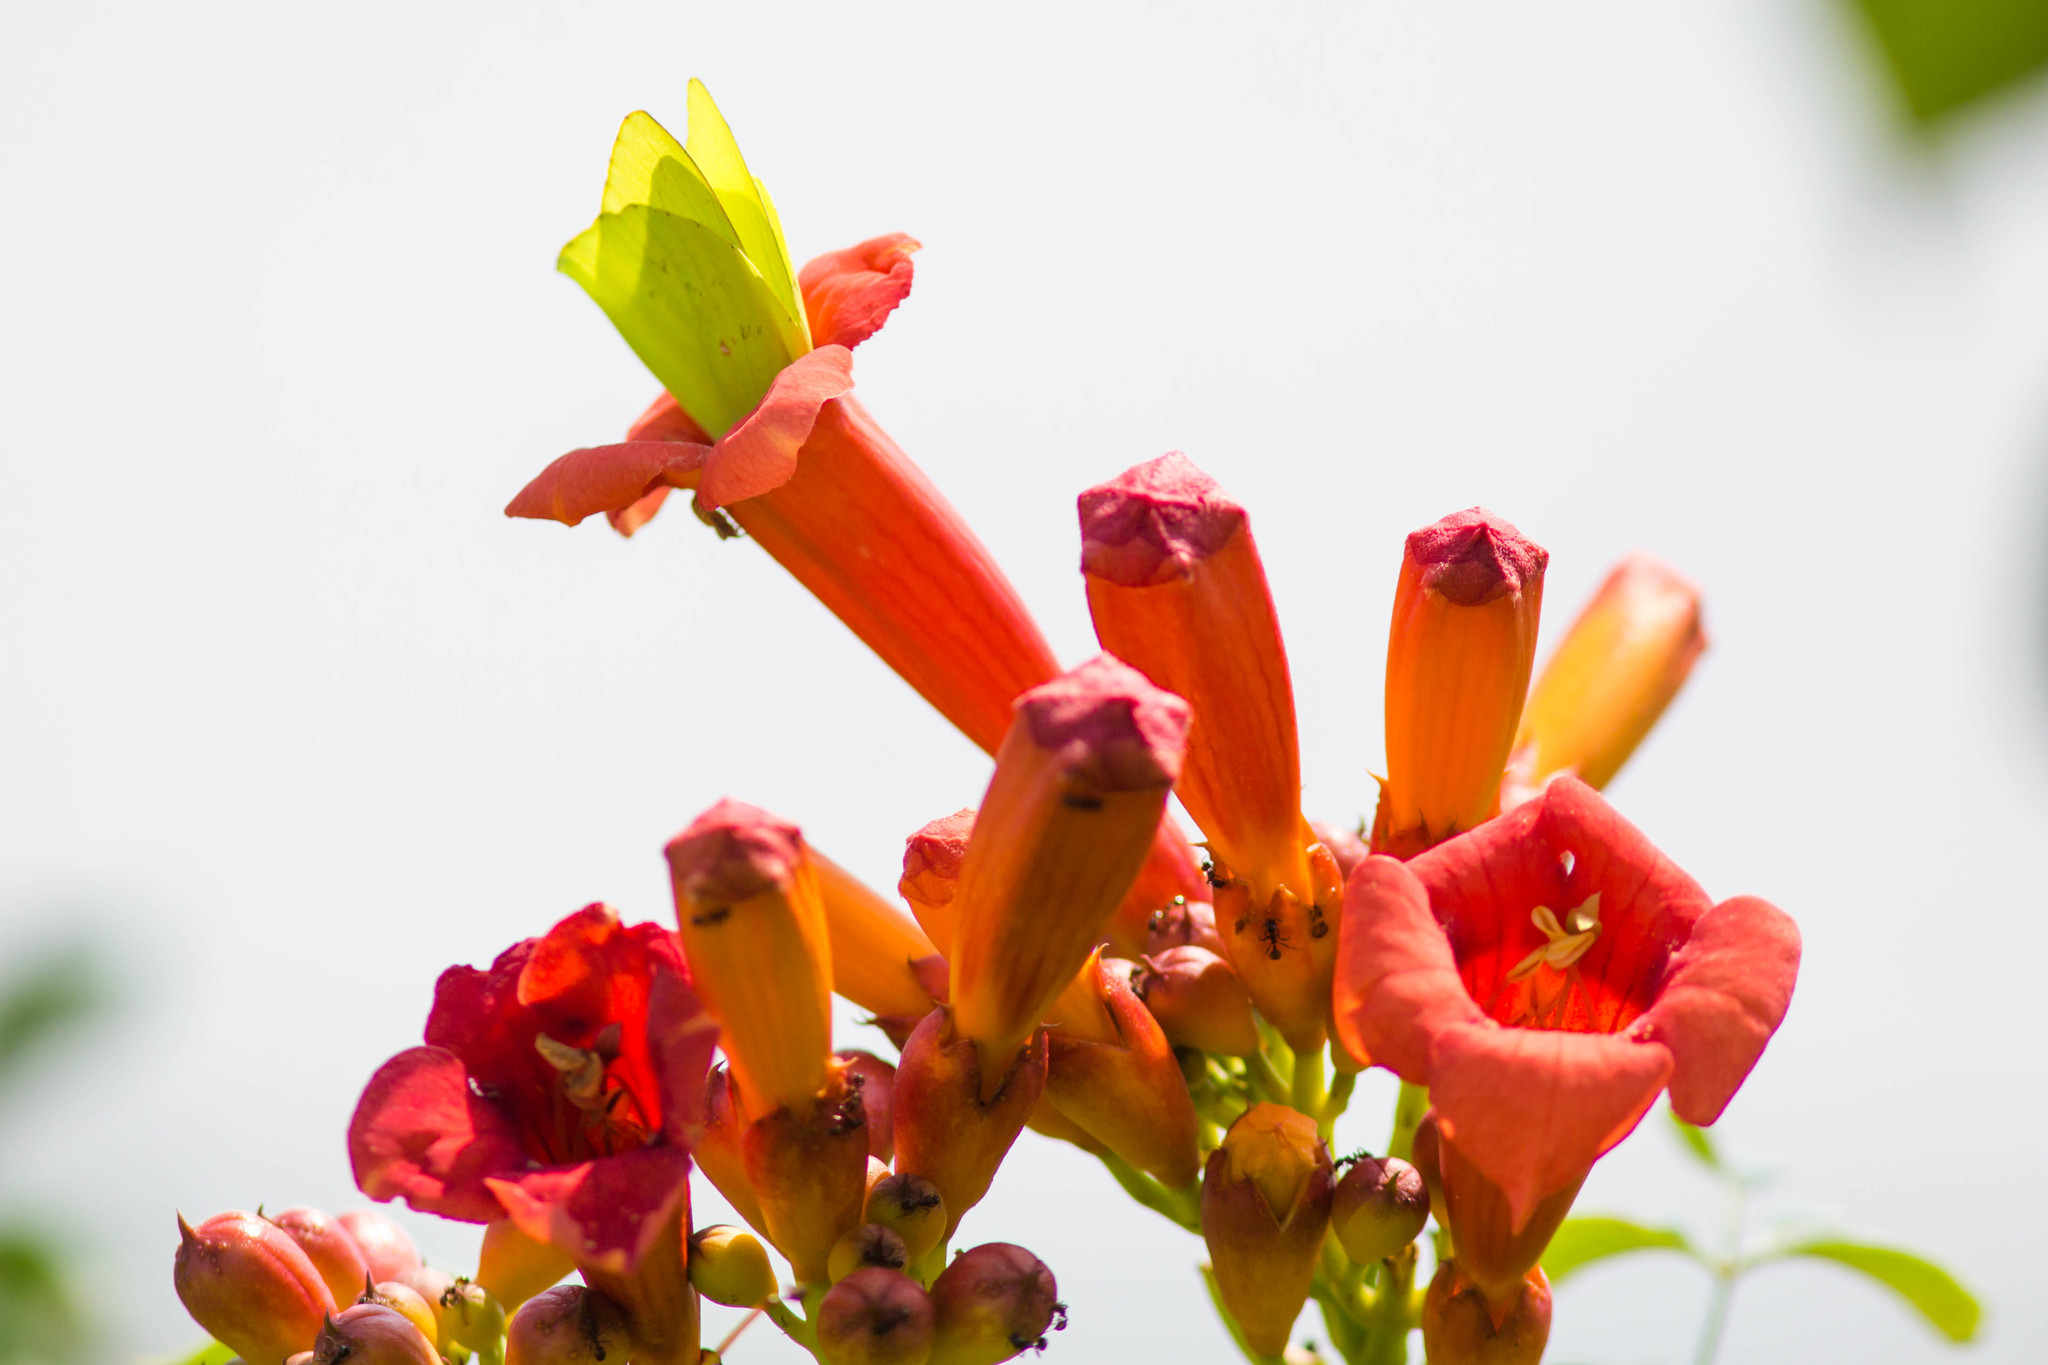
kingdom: Animalia
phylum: Arthropoda
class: Insecta
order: Lepidoptera
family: Pieridae
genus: Phoebis
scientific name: Phoebis sennae
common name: Cloudless sulphur
